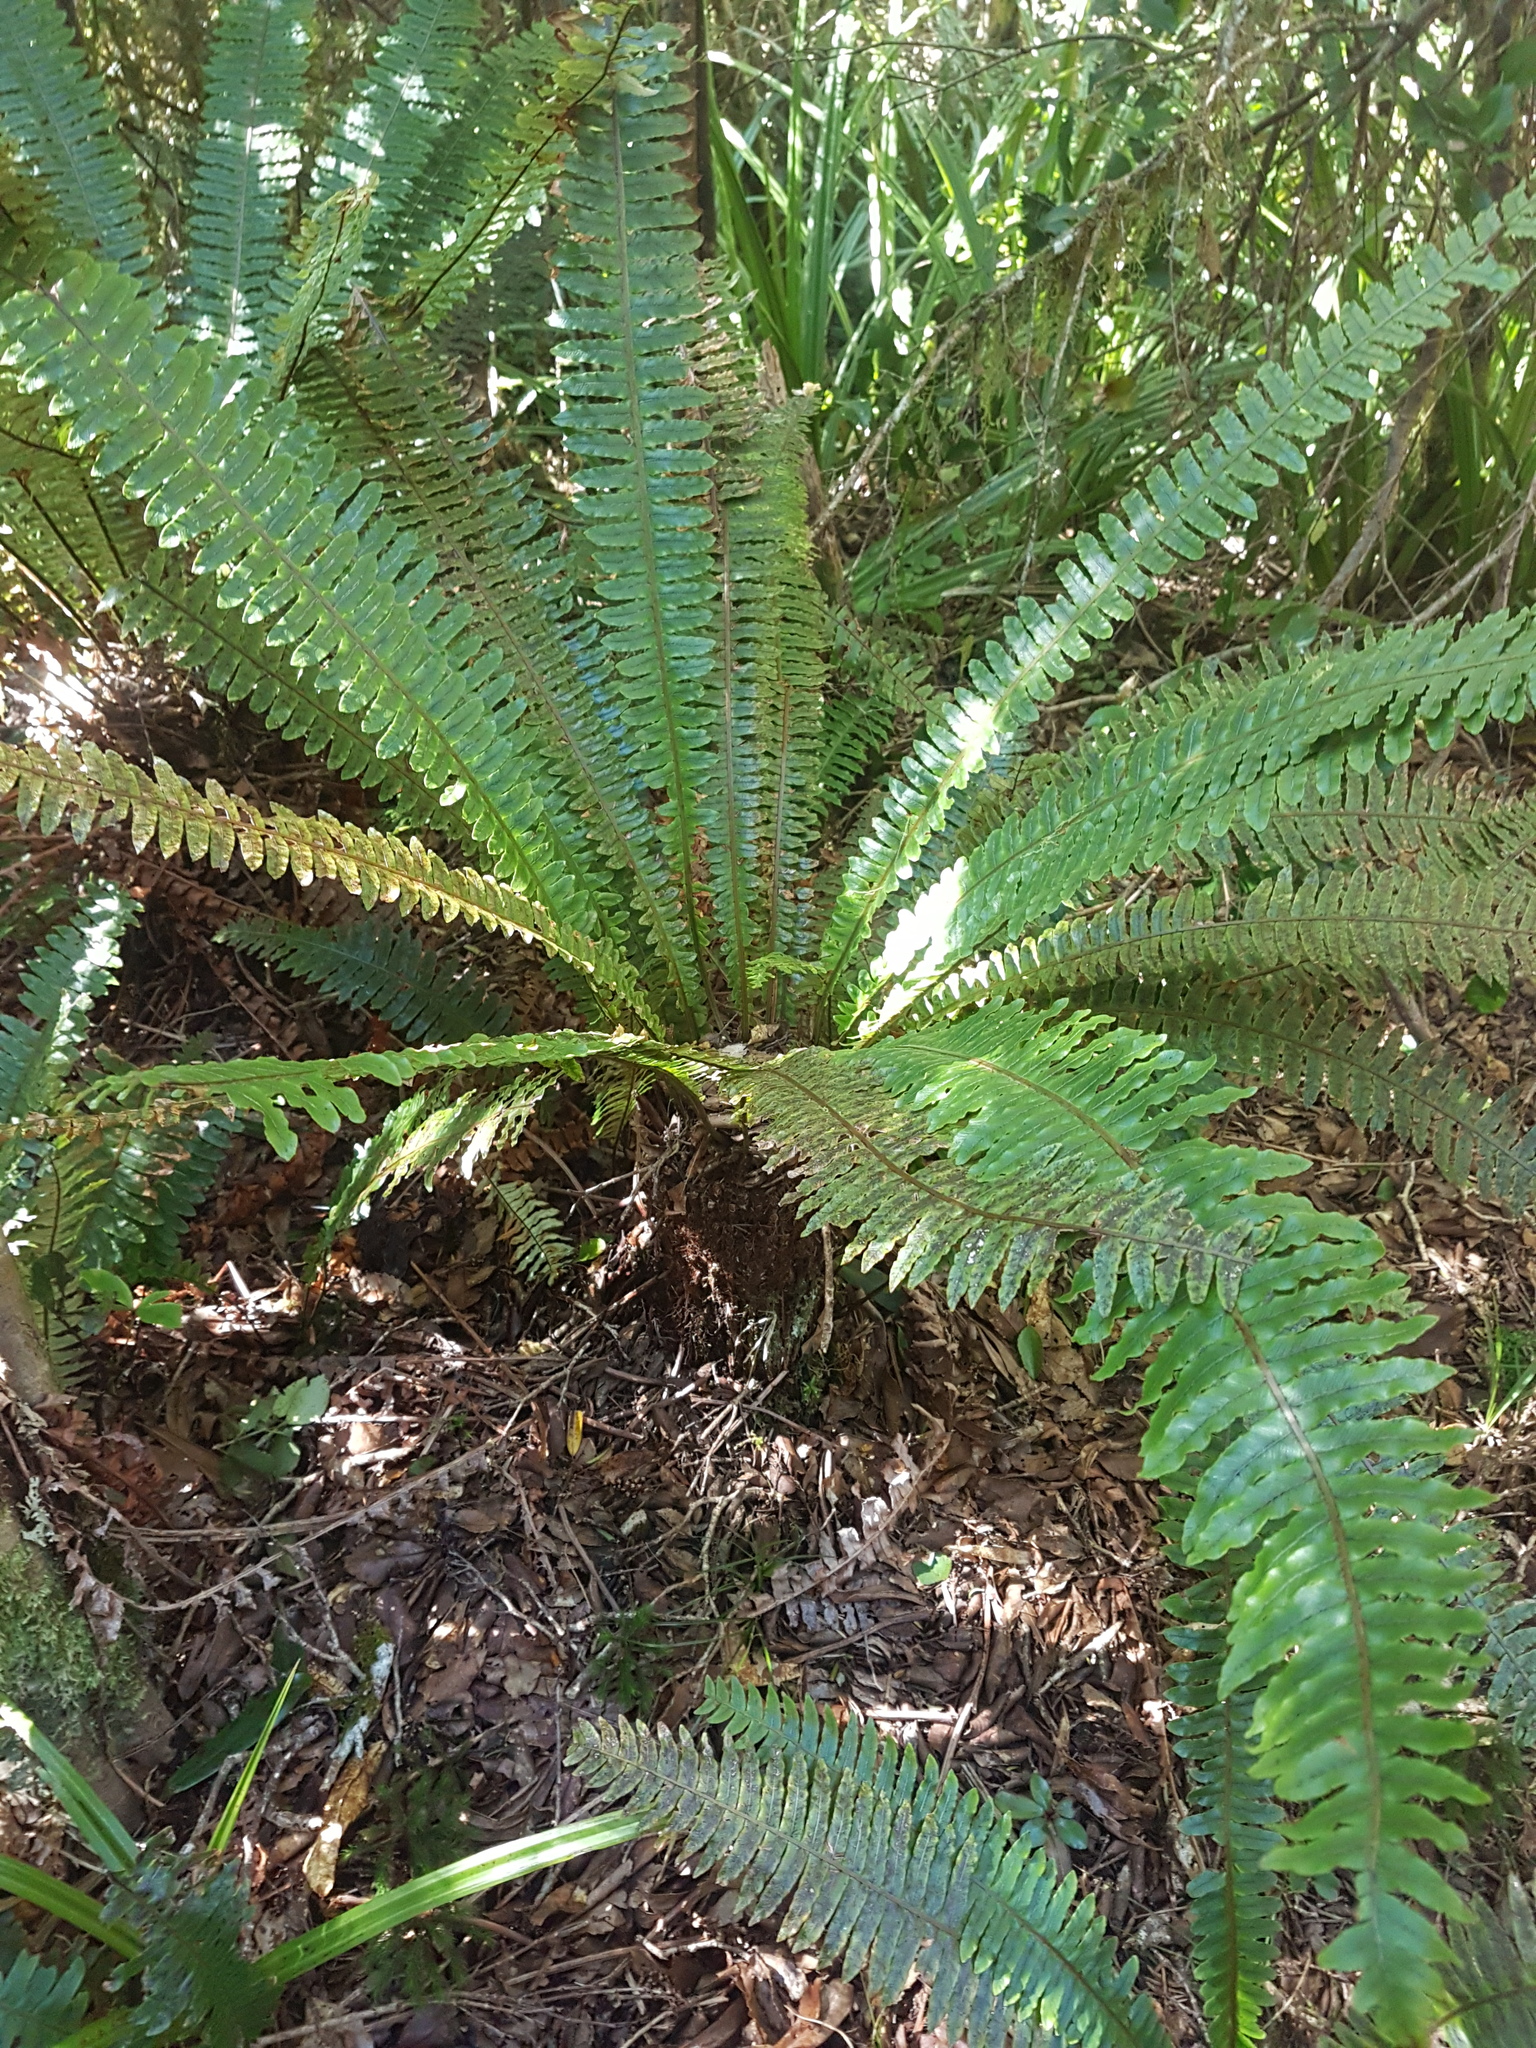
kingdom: Plantae
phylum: Tracheophyta
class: Polypodiopsida
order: Polypodiales
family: Blechnaceae
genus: Lomaria
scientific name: Lomaria discolor
